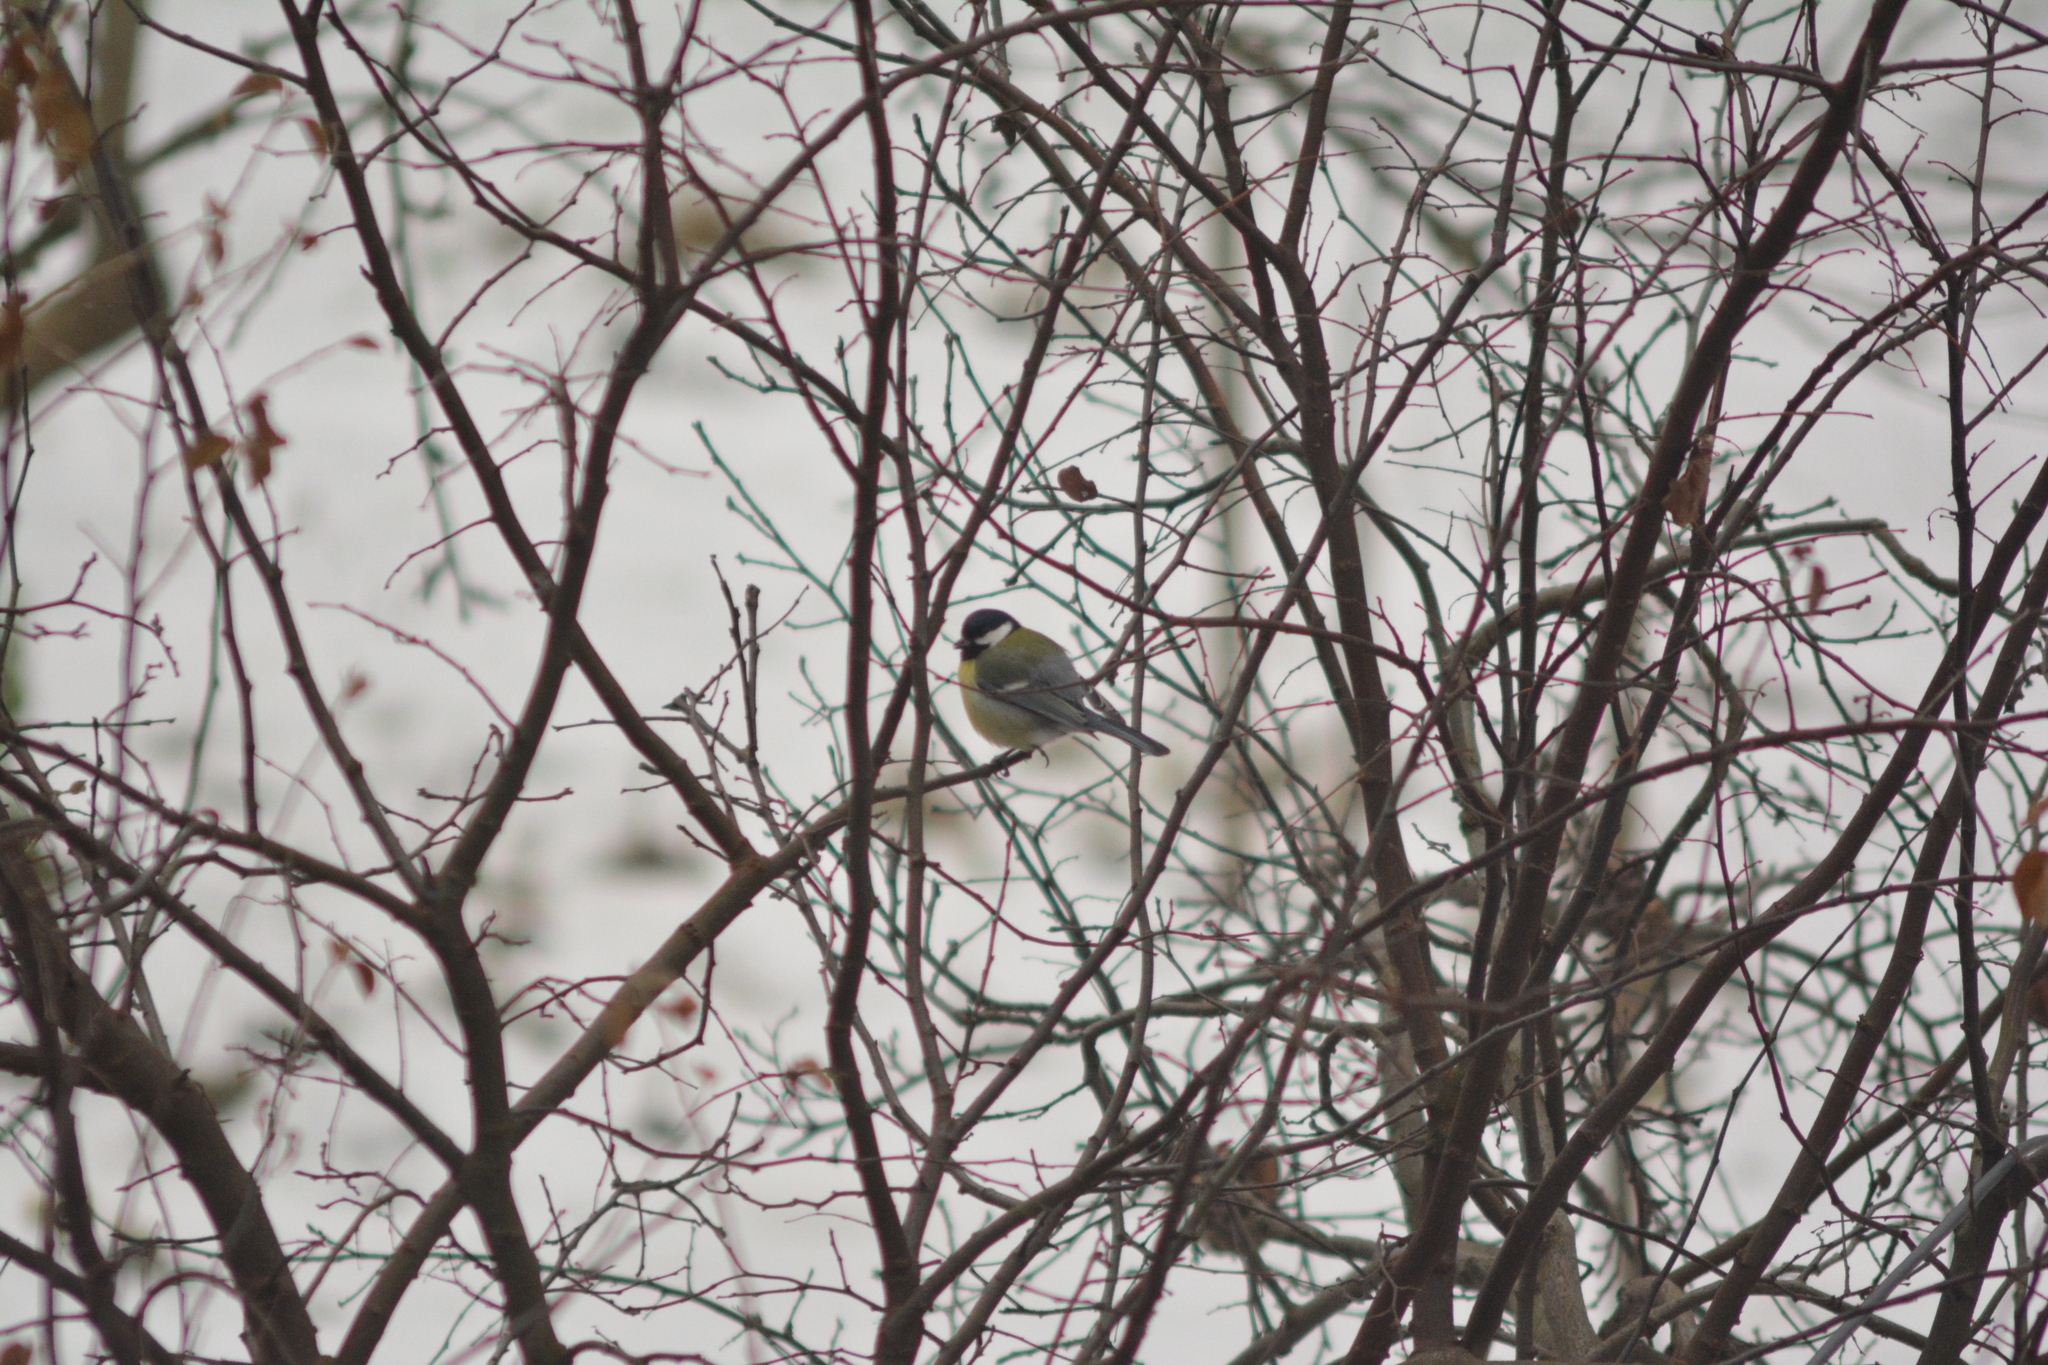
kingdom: Animalia
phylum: Chordata
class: Aves
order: Passeriformes
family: Paridae
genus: Parus
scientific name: Parus major
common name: Great tit
